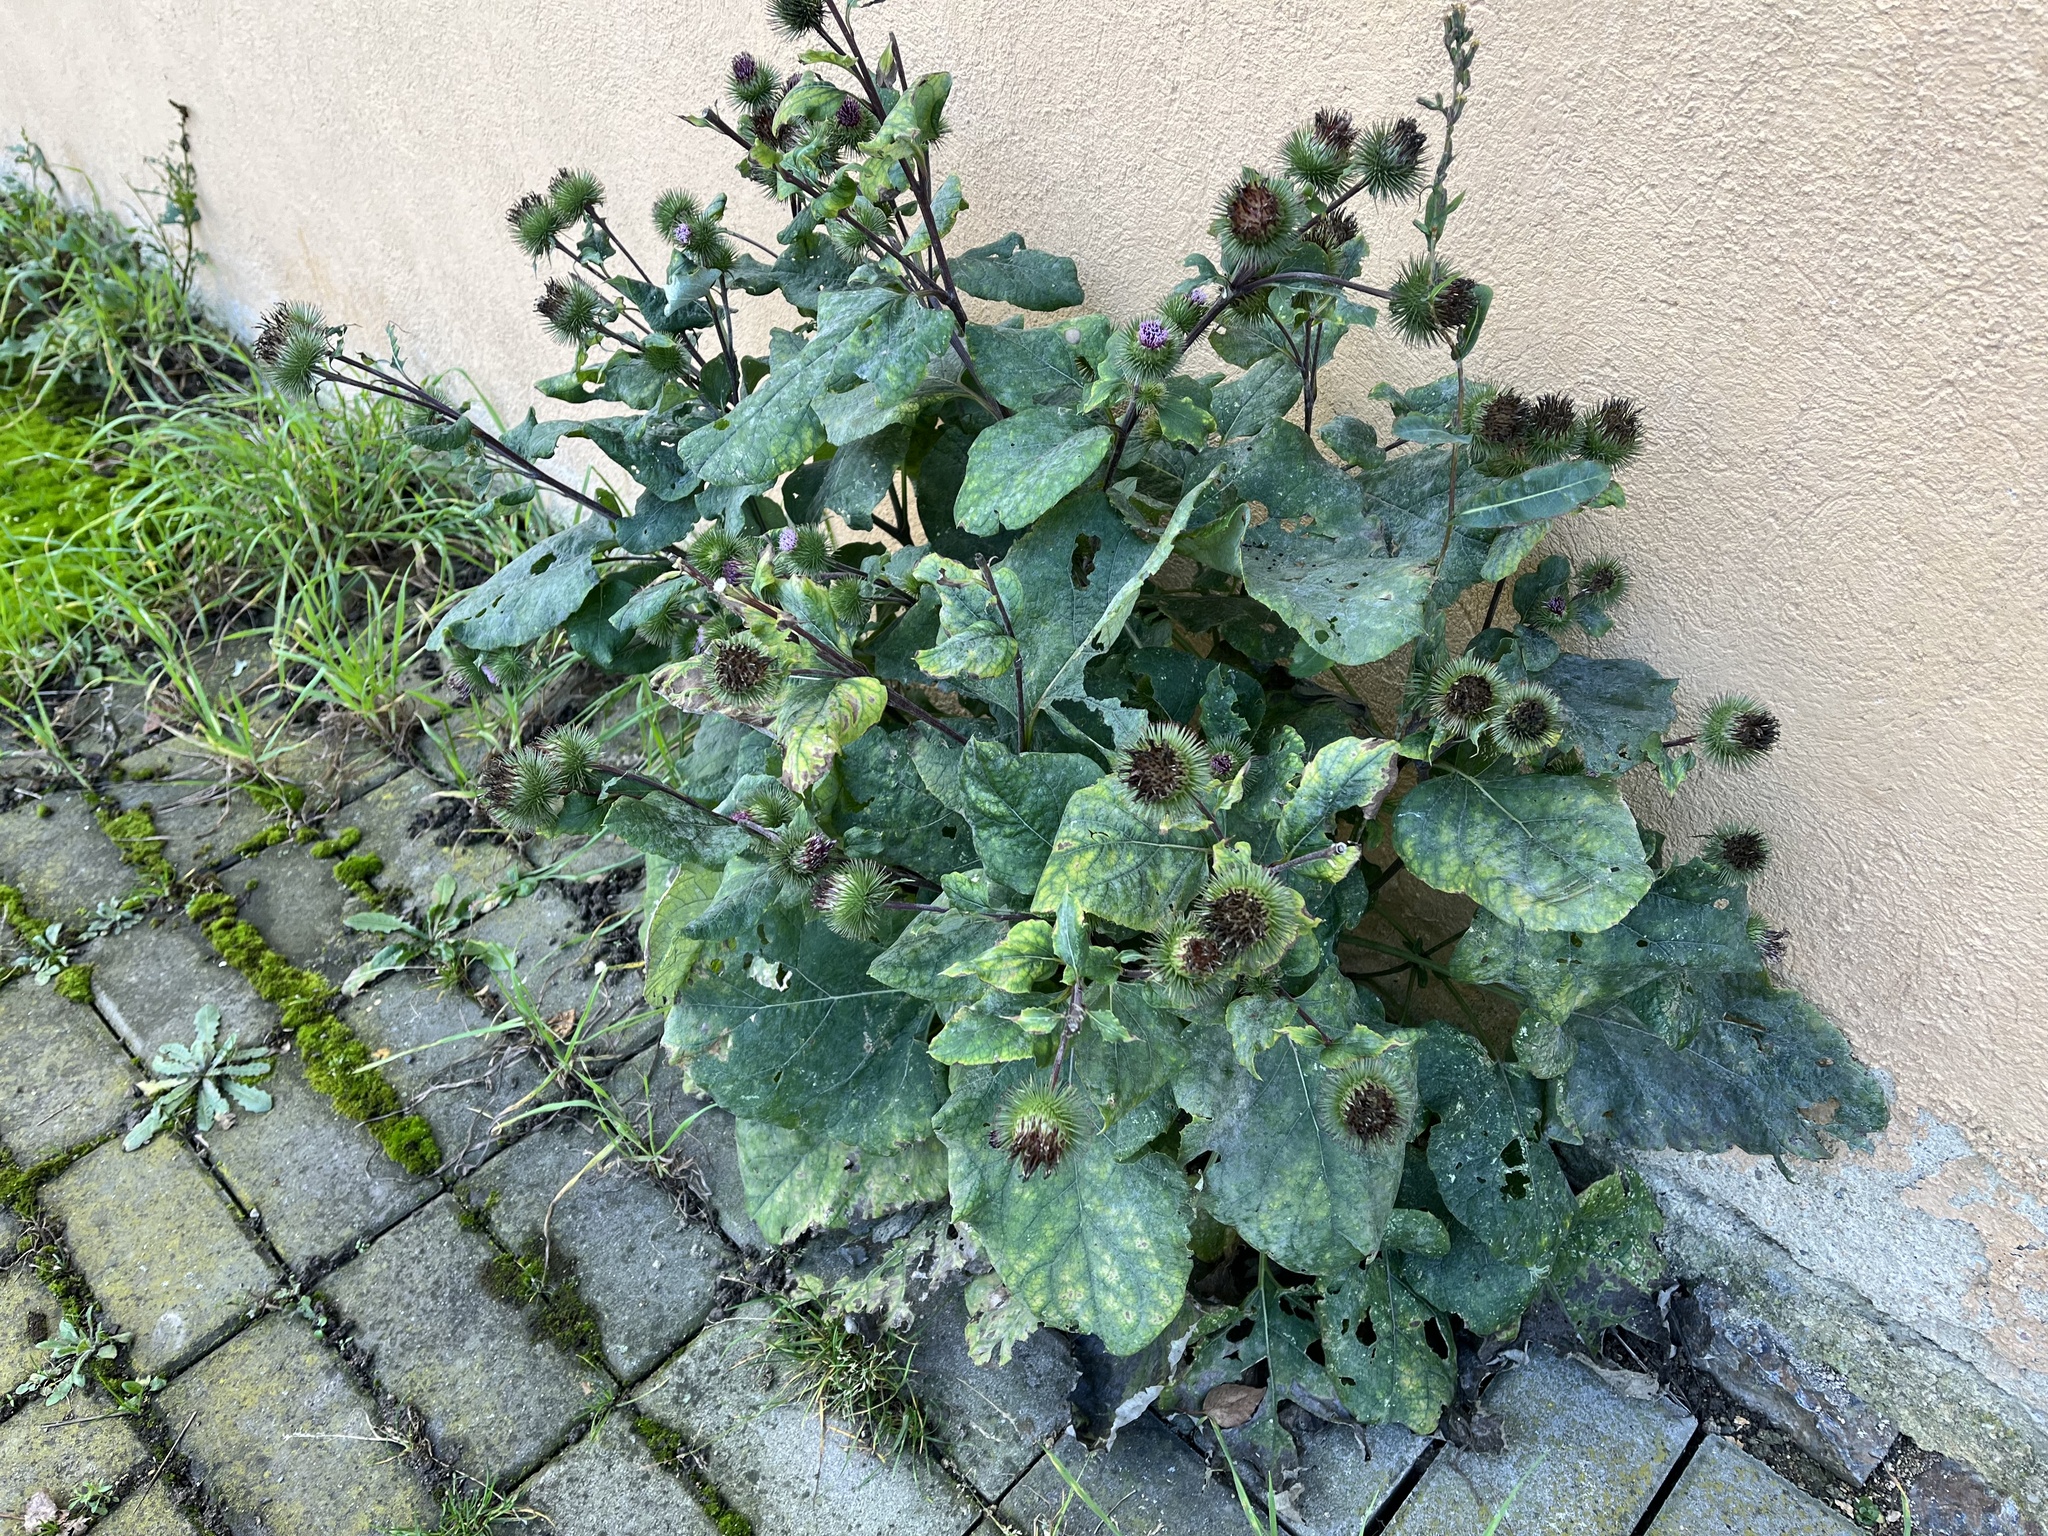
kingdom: Plantae
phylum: Tracheophyta
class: Magnoliopsida
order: Asterales
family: Asteraceae
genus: Arctium
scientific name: Arctium lappa
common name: Greater burdock
